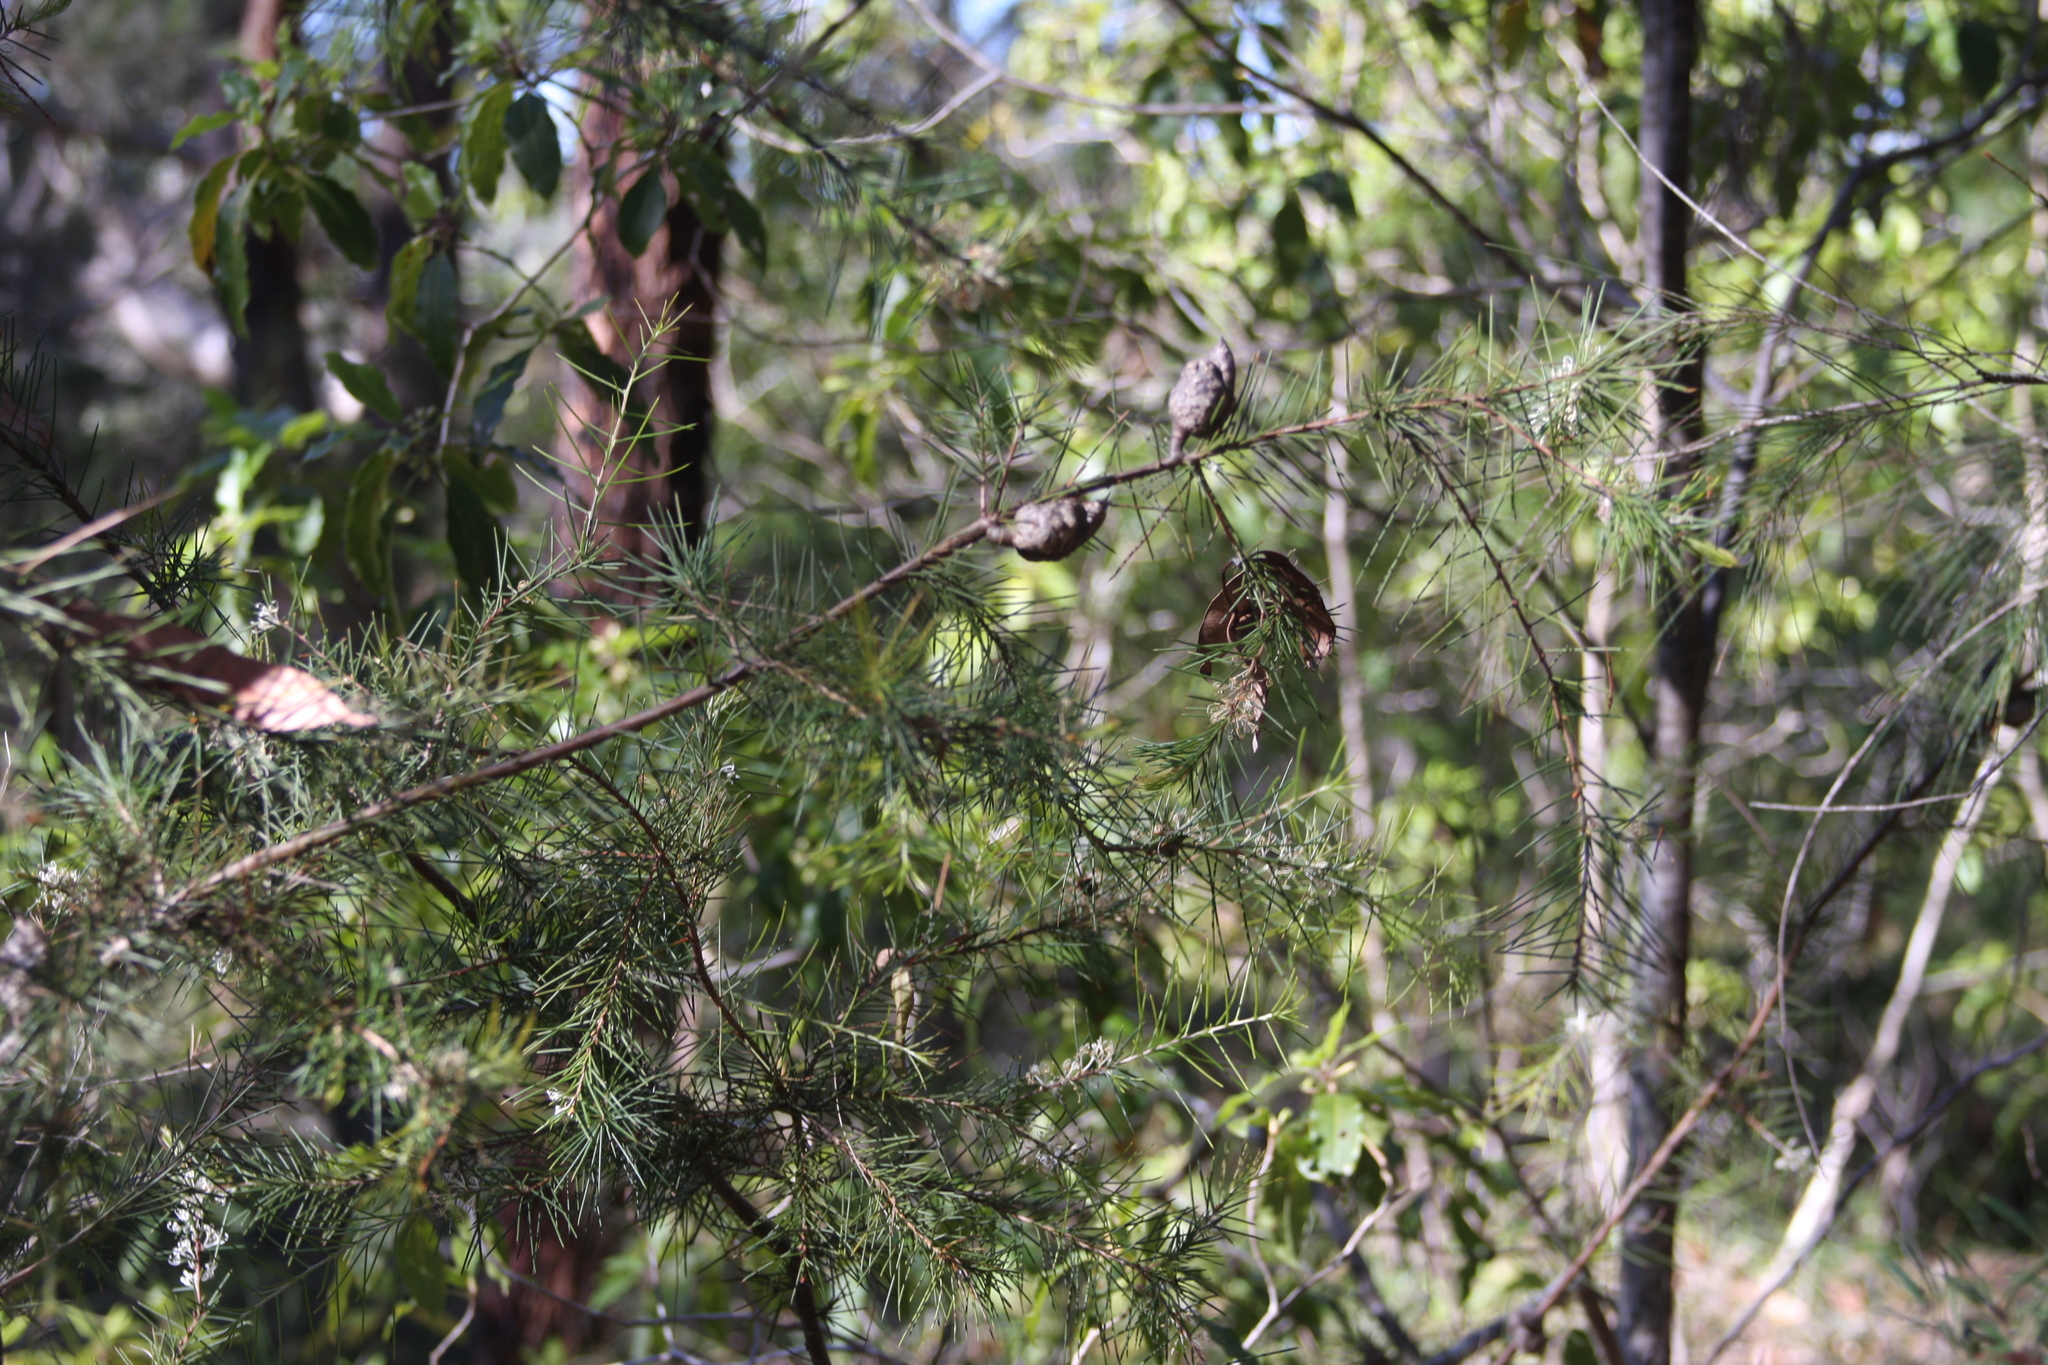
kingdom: Plantae
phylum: Tracheophyta
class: Magnoliopsida
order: Proteales
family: Proteaceae
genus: Hakea
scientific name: Hakea sericea
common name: Needle bush
